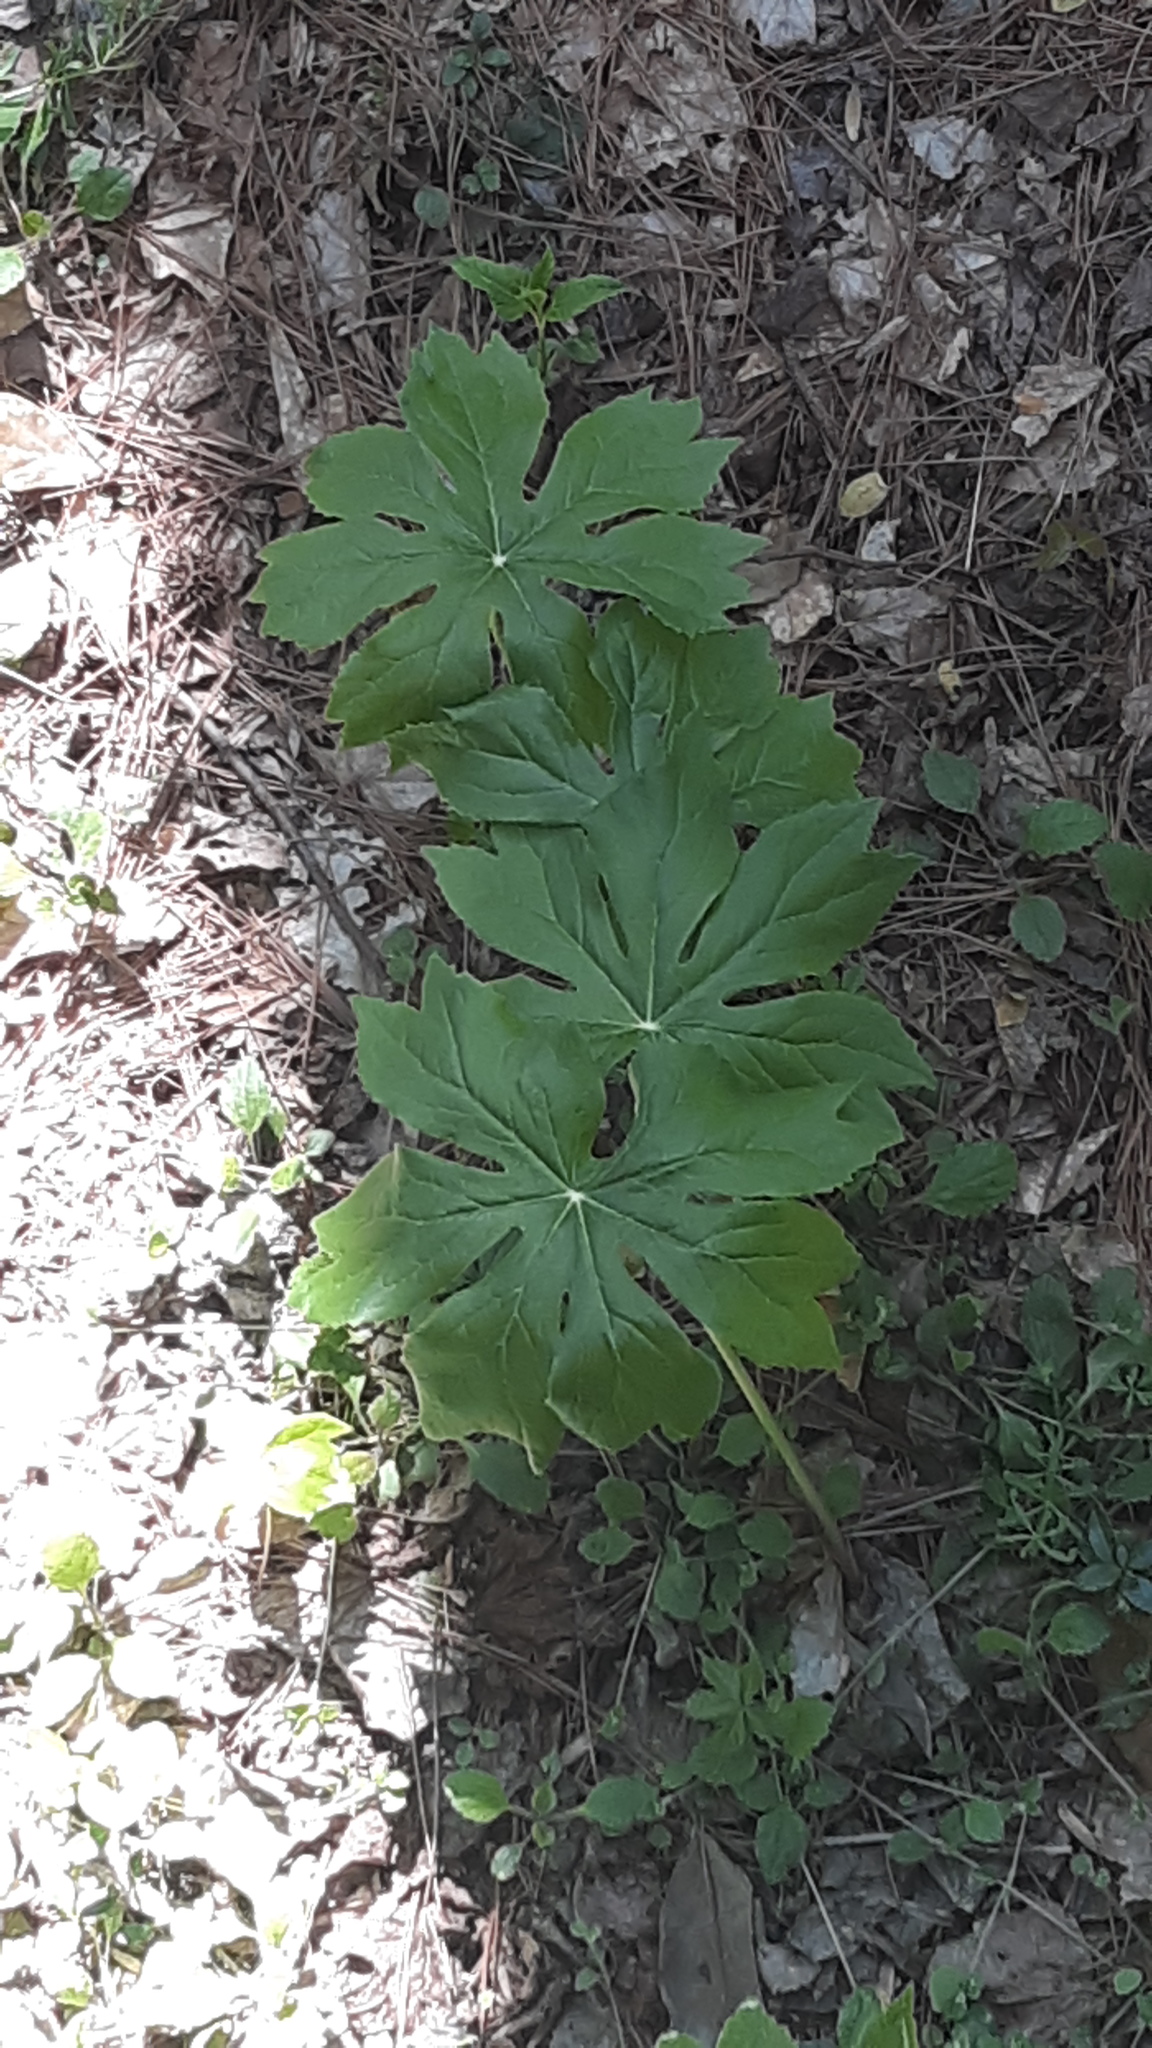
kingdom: Plantae
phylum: Tracheophyta
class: Magnoliopsida
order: Ranunculales
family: Berberidaceae
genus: Podophyllum
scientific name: Podophyllum peltatum
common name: Wild mandrake
